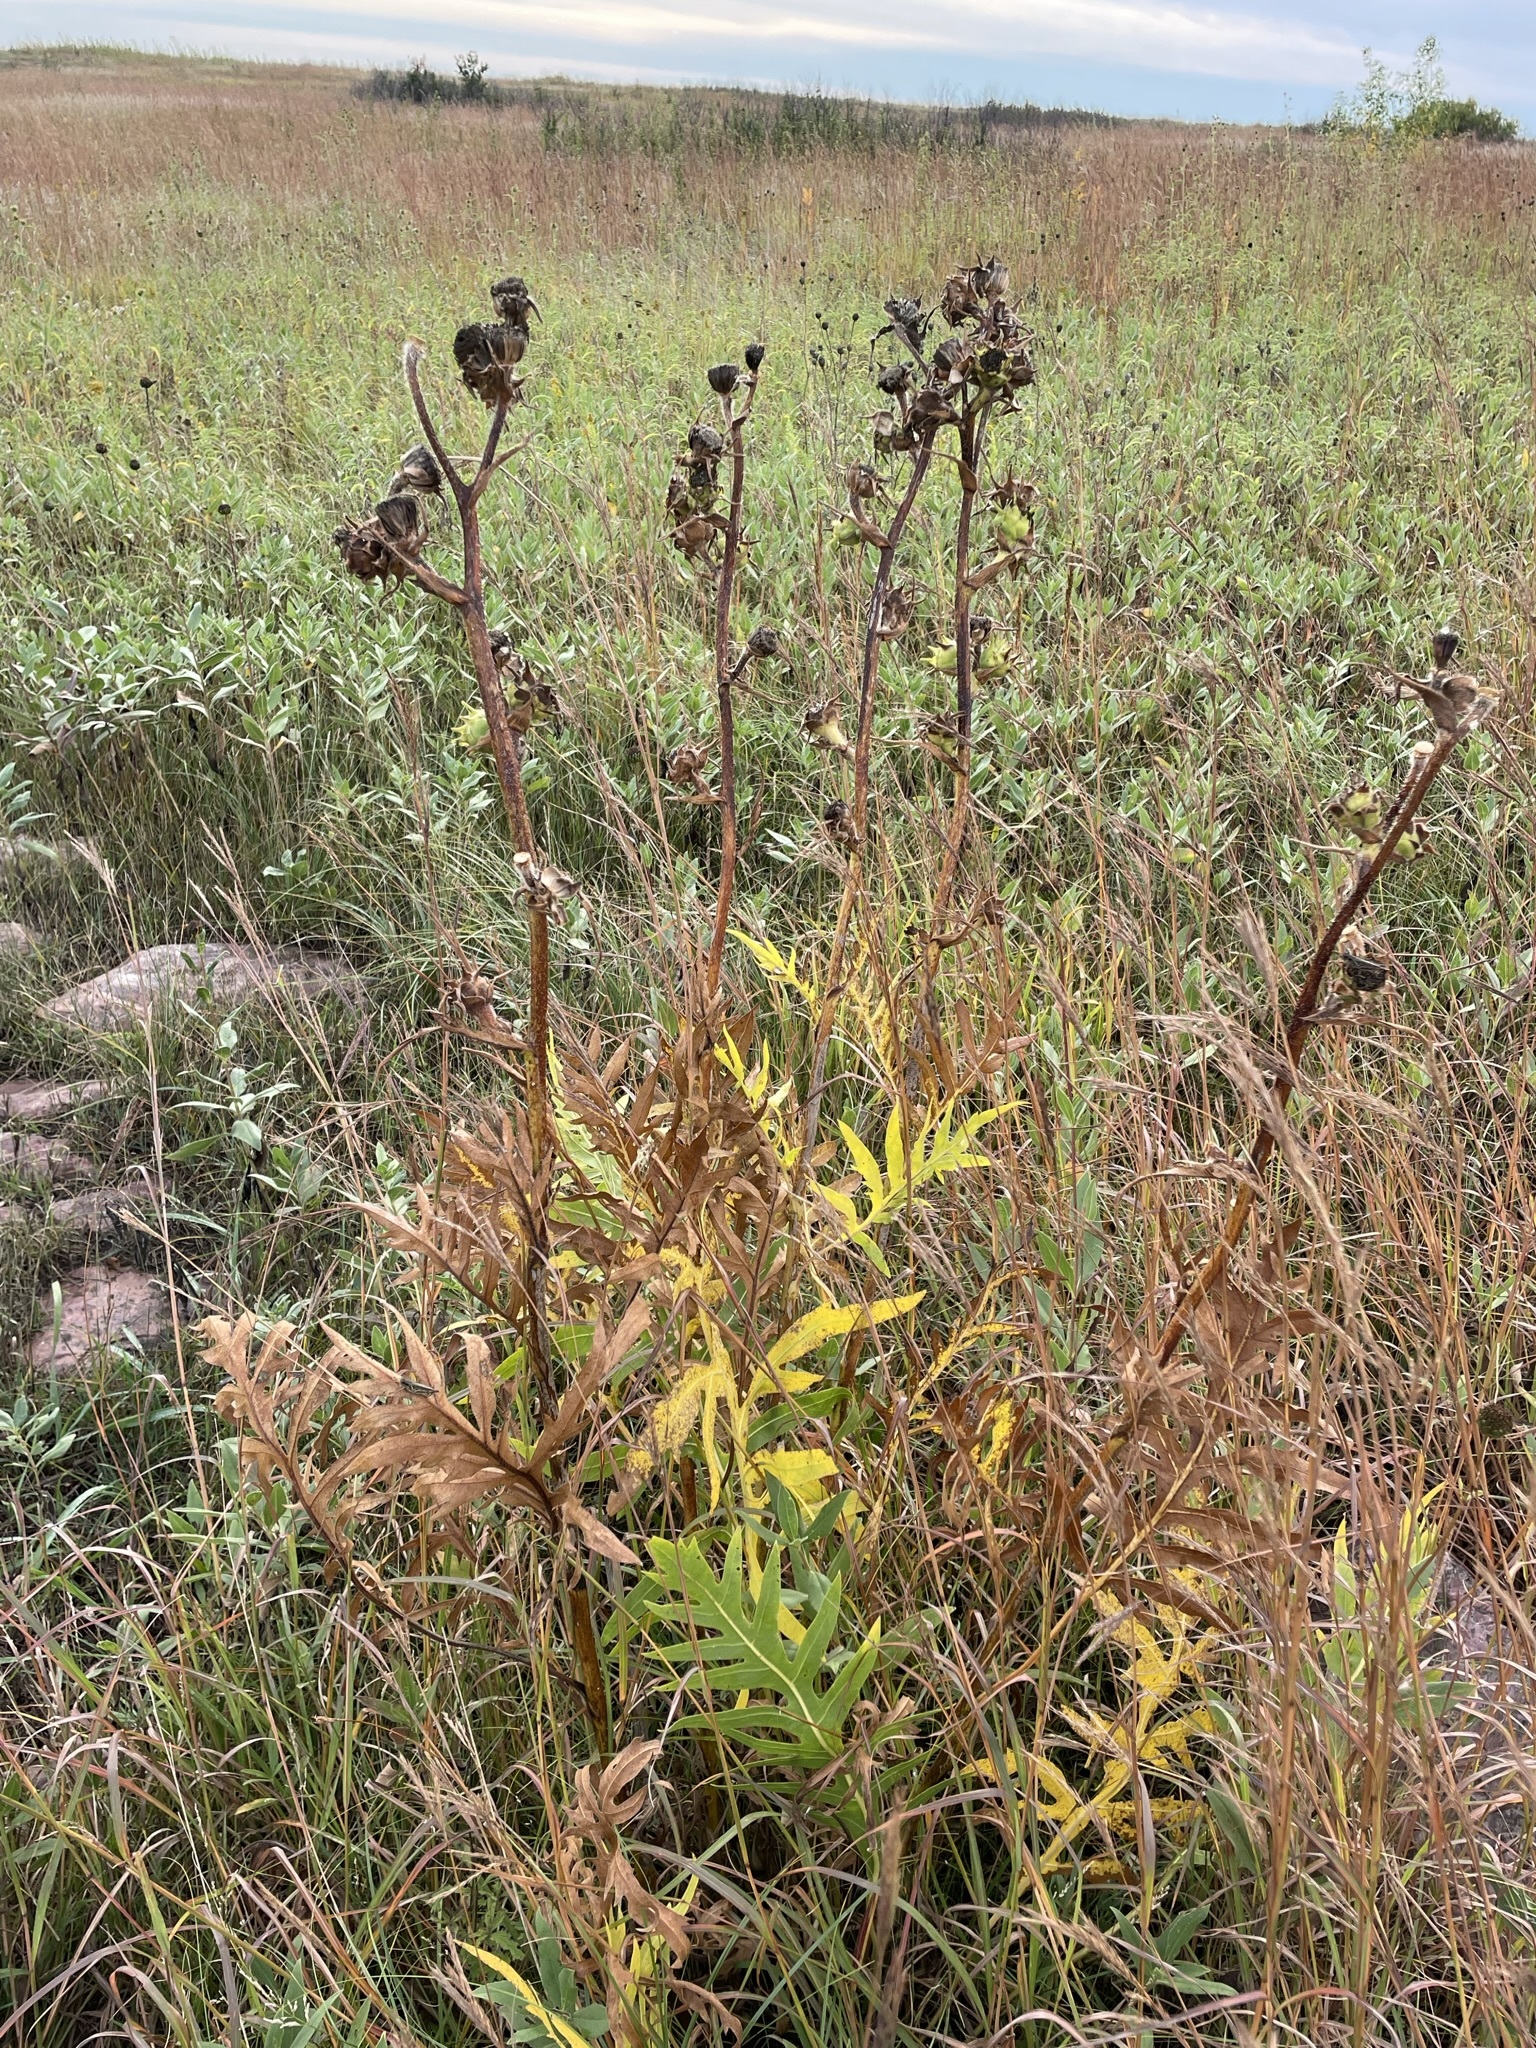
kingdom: Plantae
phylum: Tracheophyta
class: Magnoliopsida
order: Asterales
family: Asteraceae
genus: Silphium
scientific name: Silphium laciniatum
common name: Polarplant
